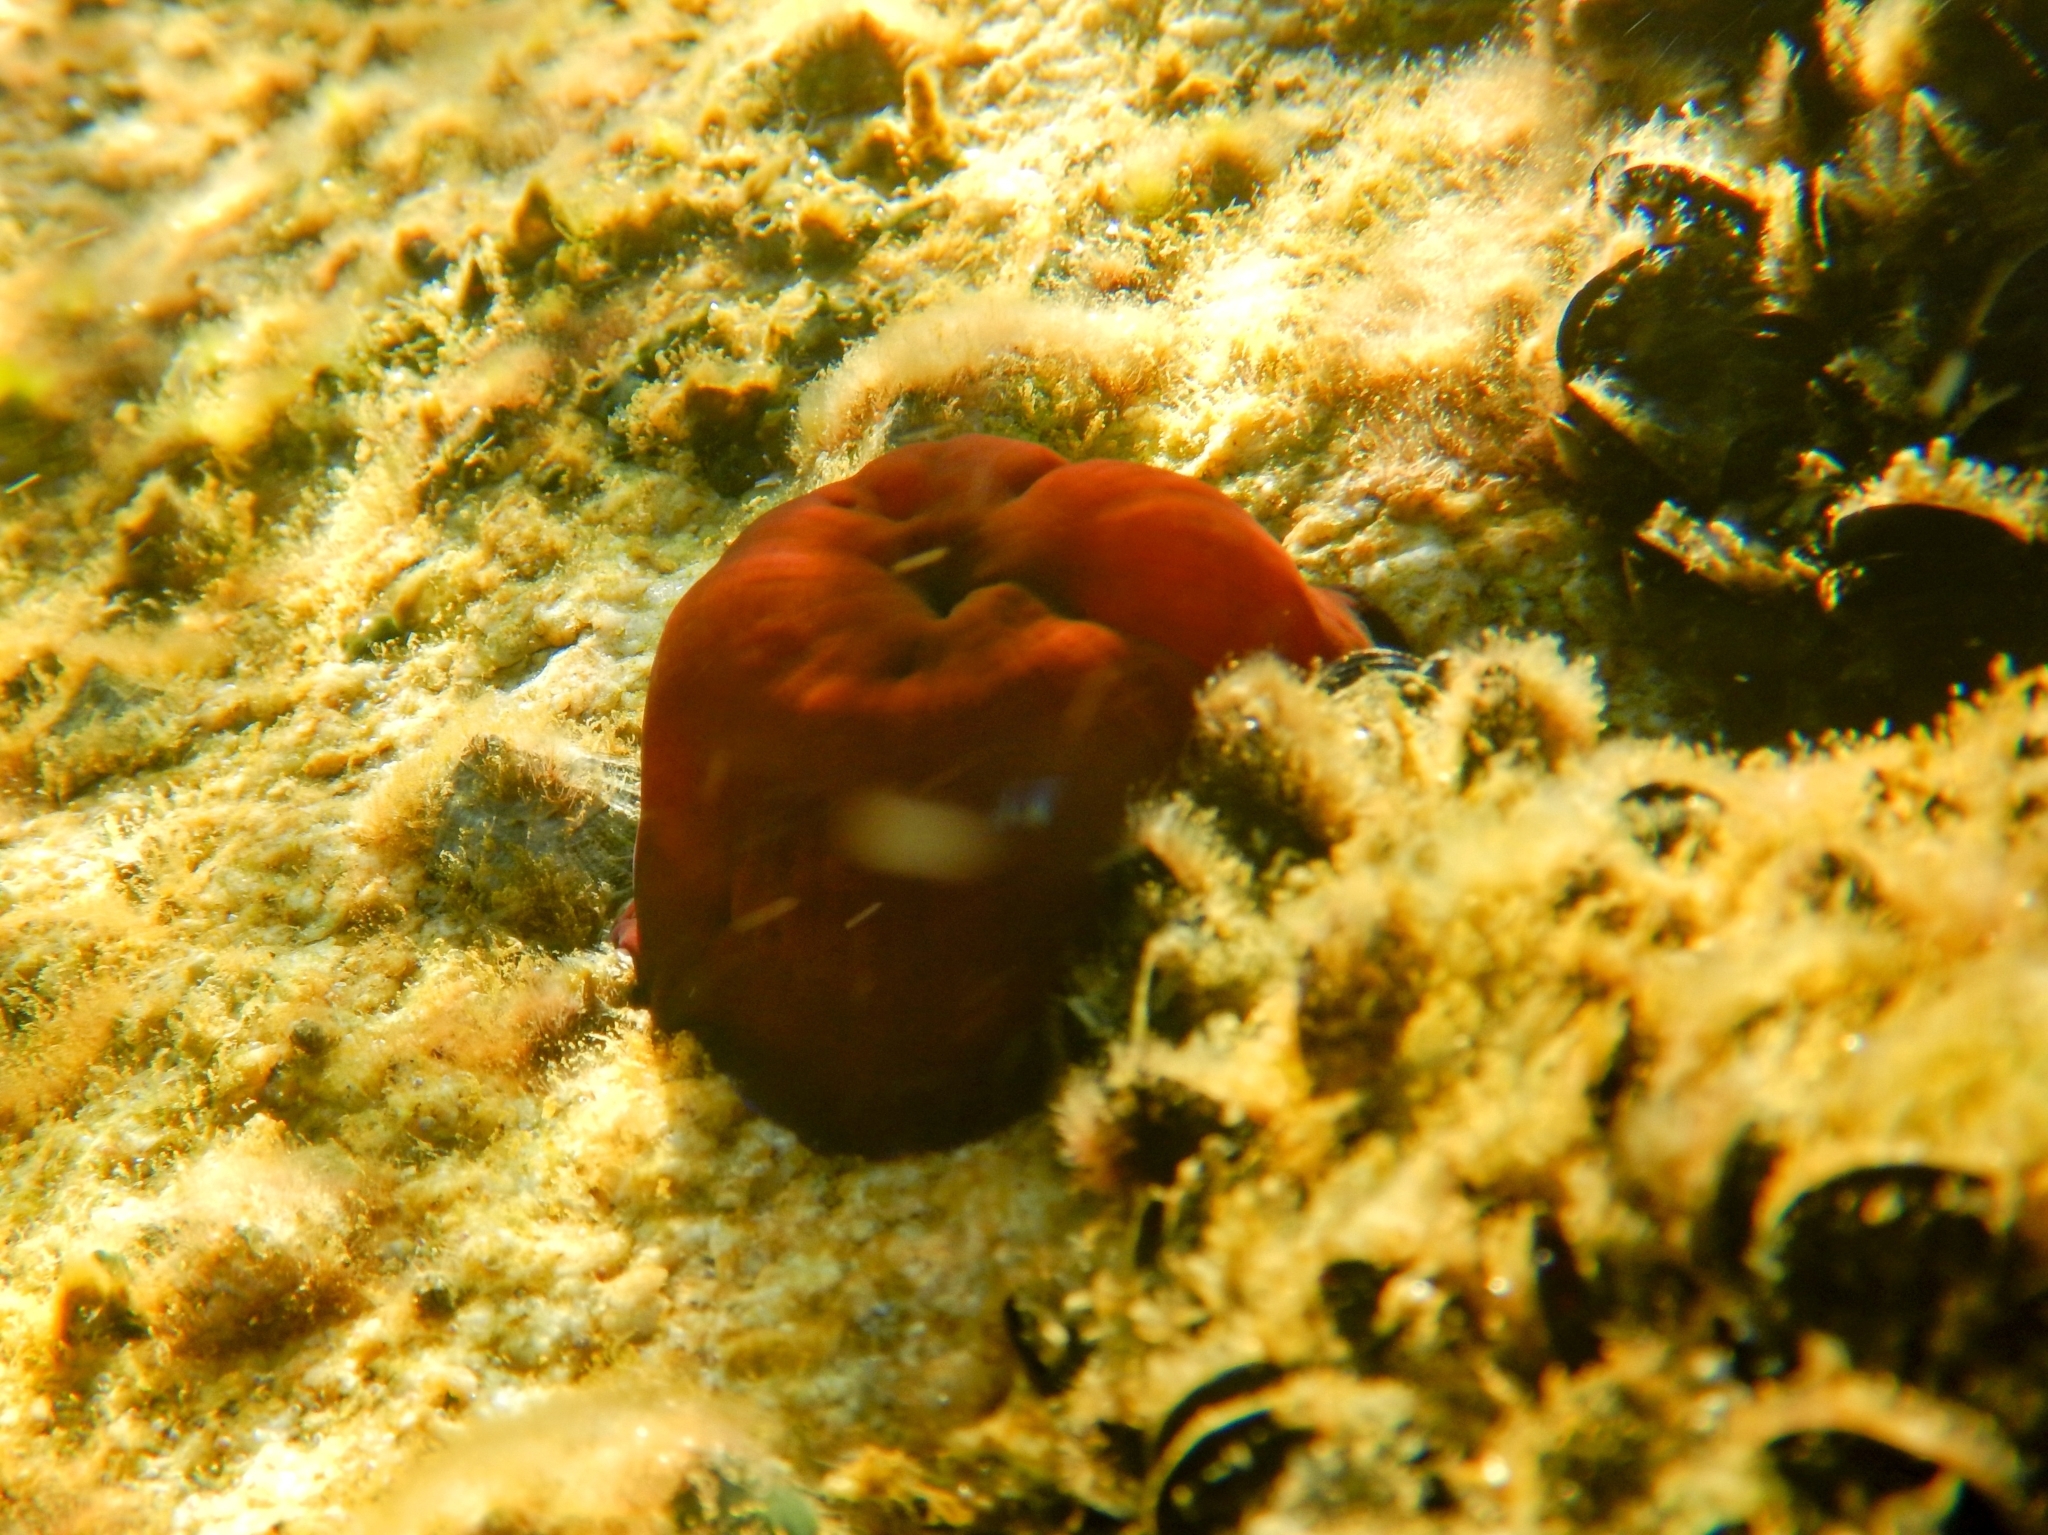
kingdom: Animalia
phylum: Cnidaria
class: Anthozoa
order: Actiniaria
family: Actiniidae
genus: Actinia
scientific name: Actinia mediterranea
